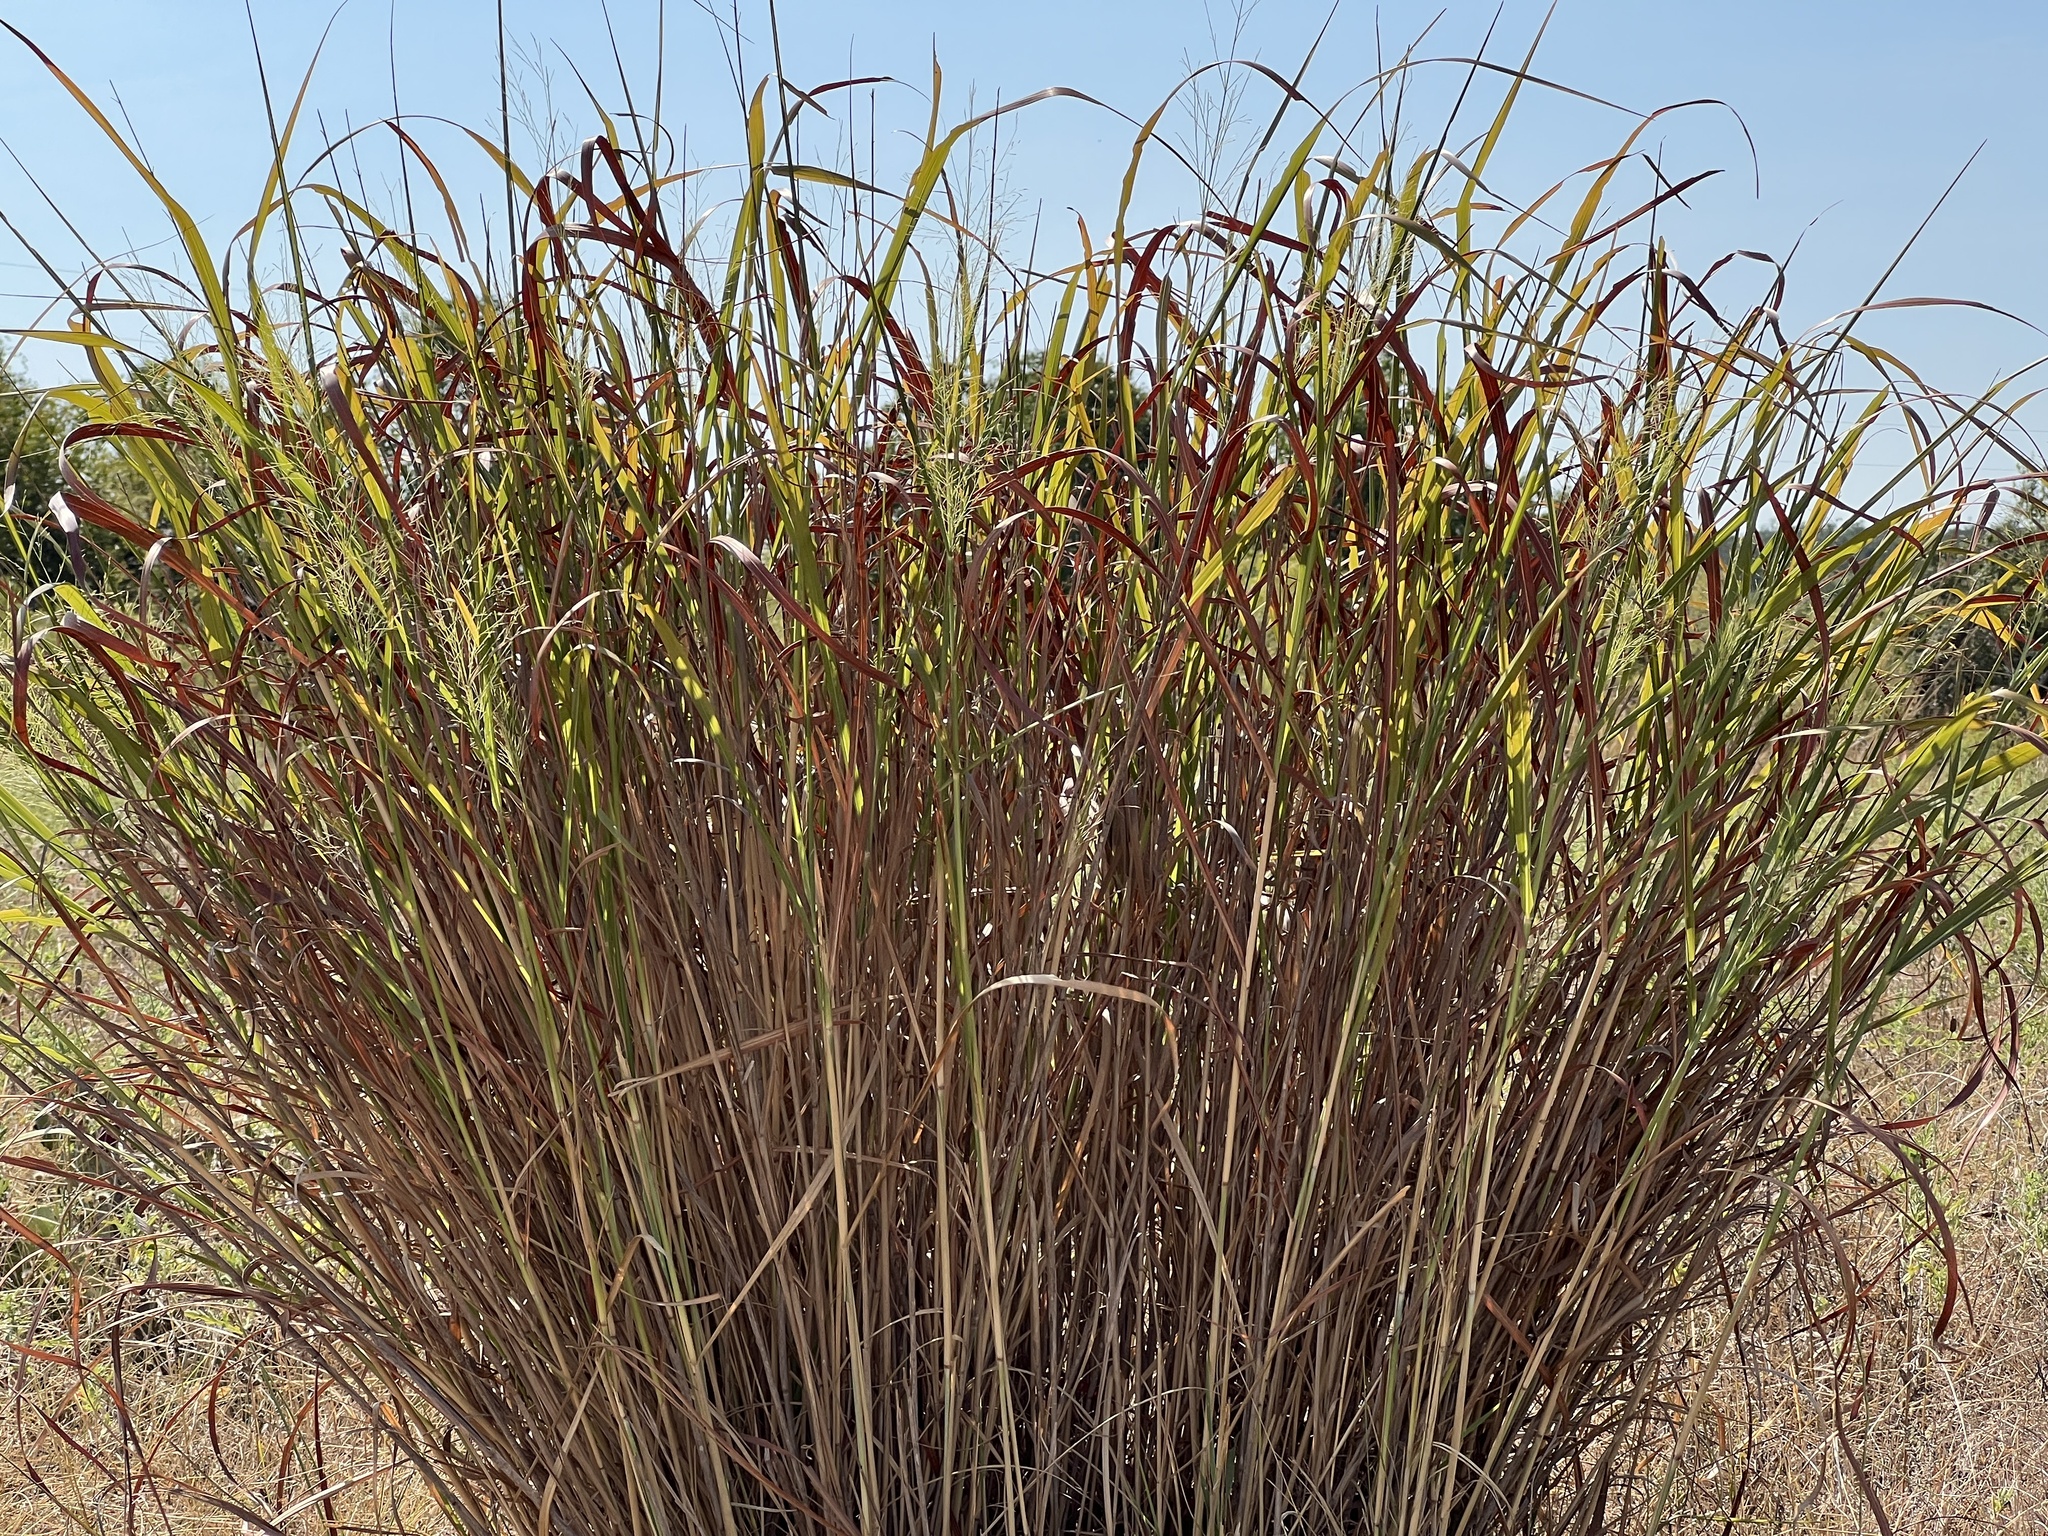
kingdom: Plantae
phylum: Tracheophyta
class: Liliopsida
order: Poales
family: Poaceae
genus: Panicum
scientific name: Panicum virgatum
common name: Switchgrass
